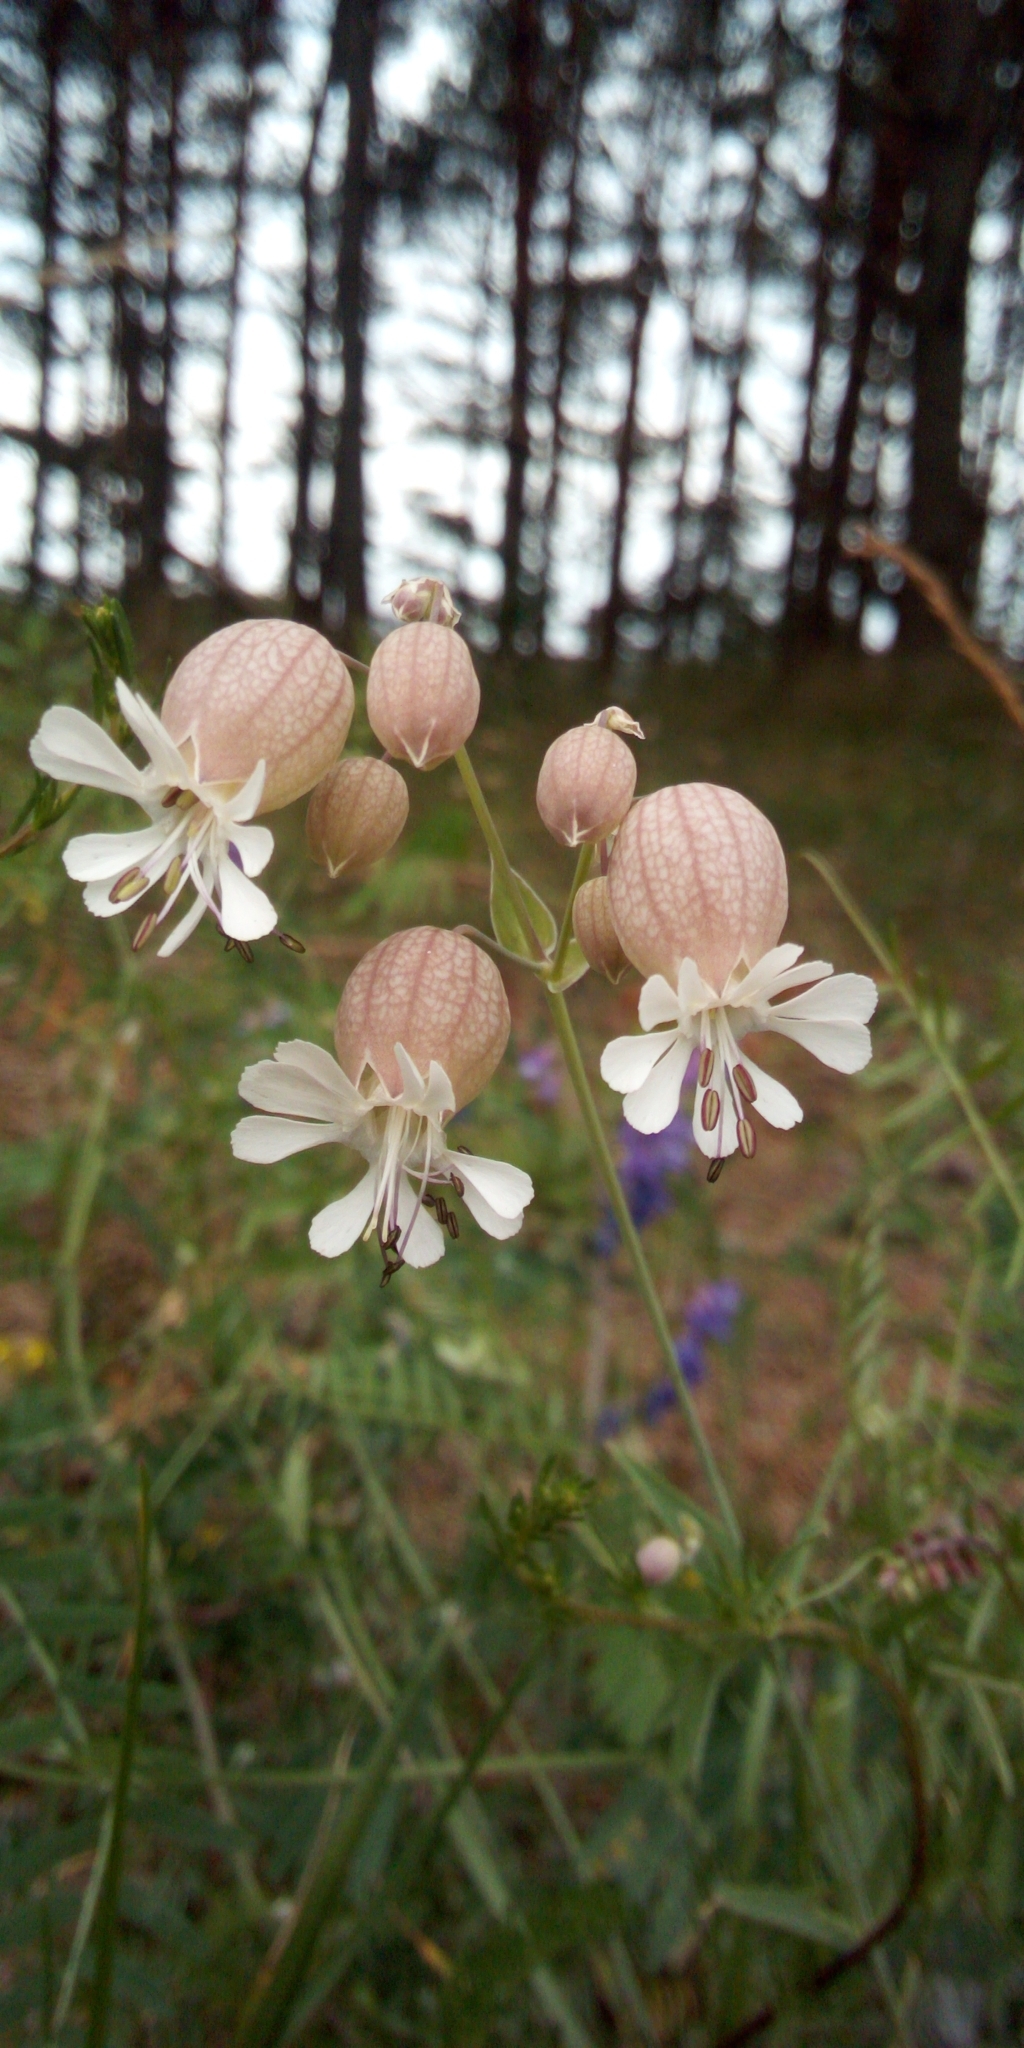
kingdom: Plantae
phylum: Tracheophyta
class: Magnoliopsida
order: Caryophyllales
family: Caryophyllaceae
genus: Silene
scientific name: Silene vulgaris
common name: Bladder campion
